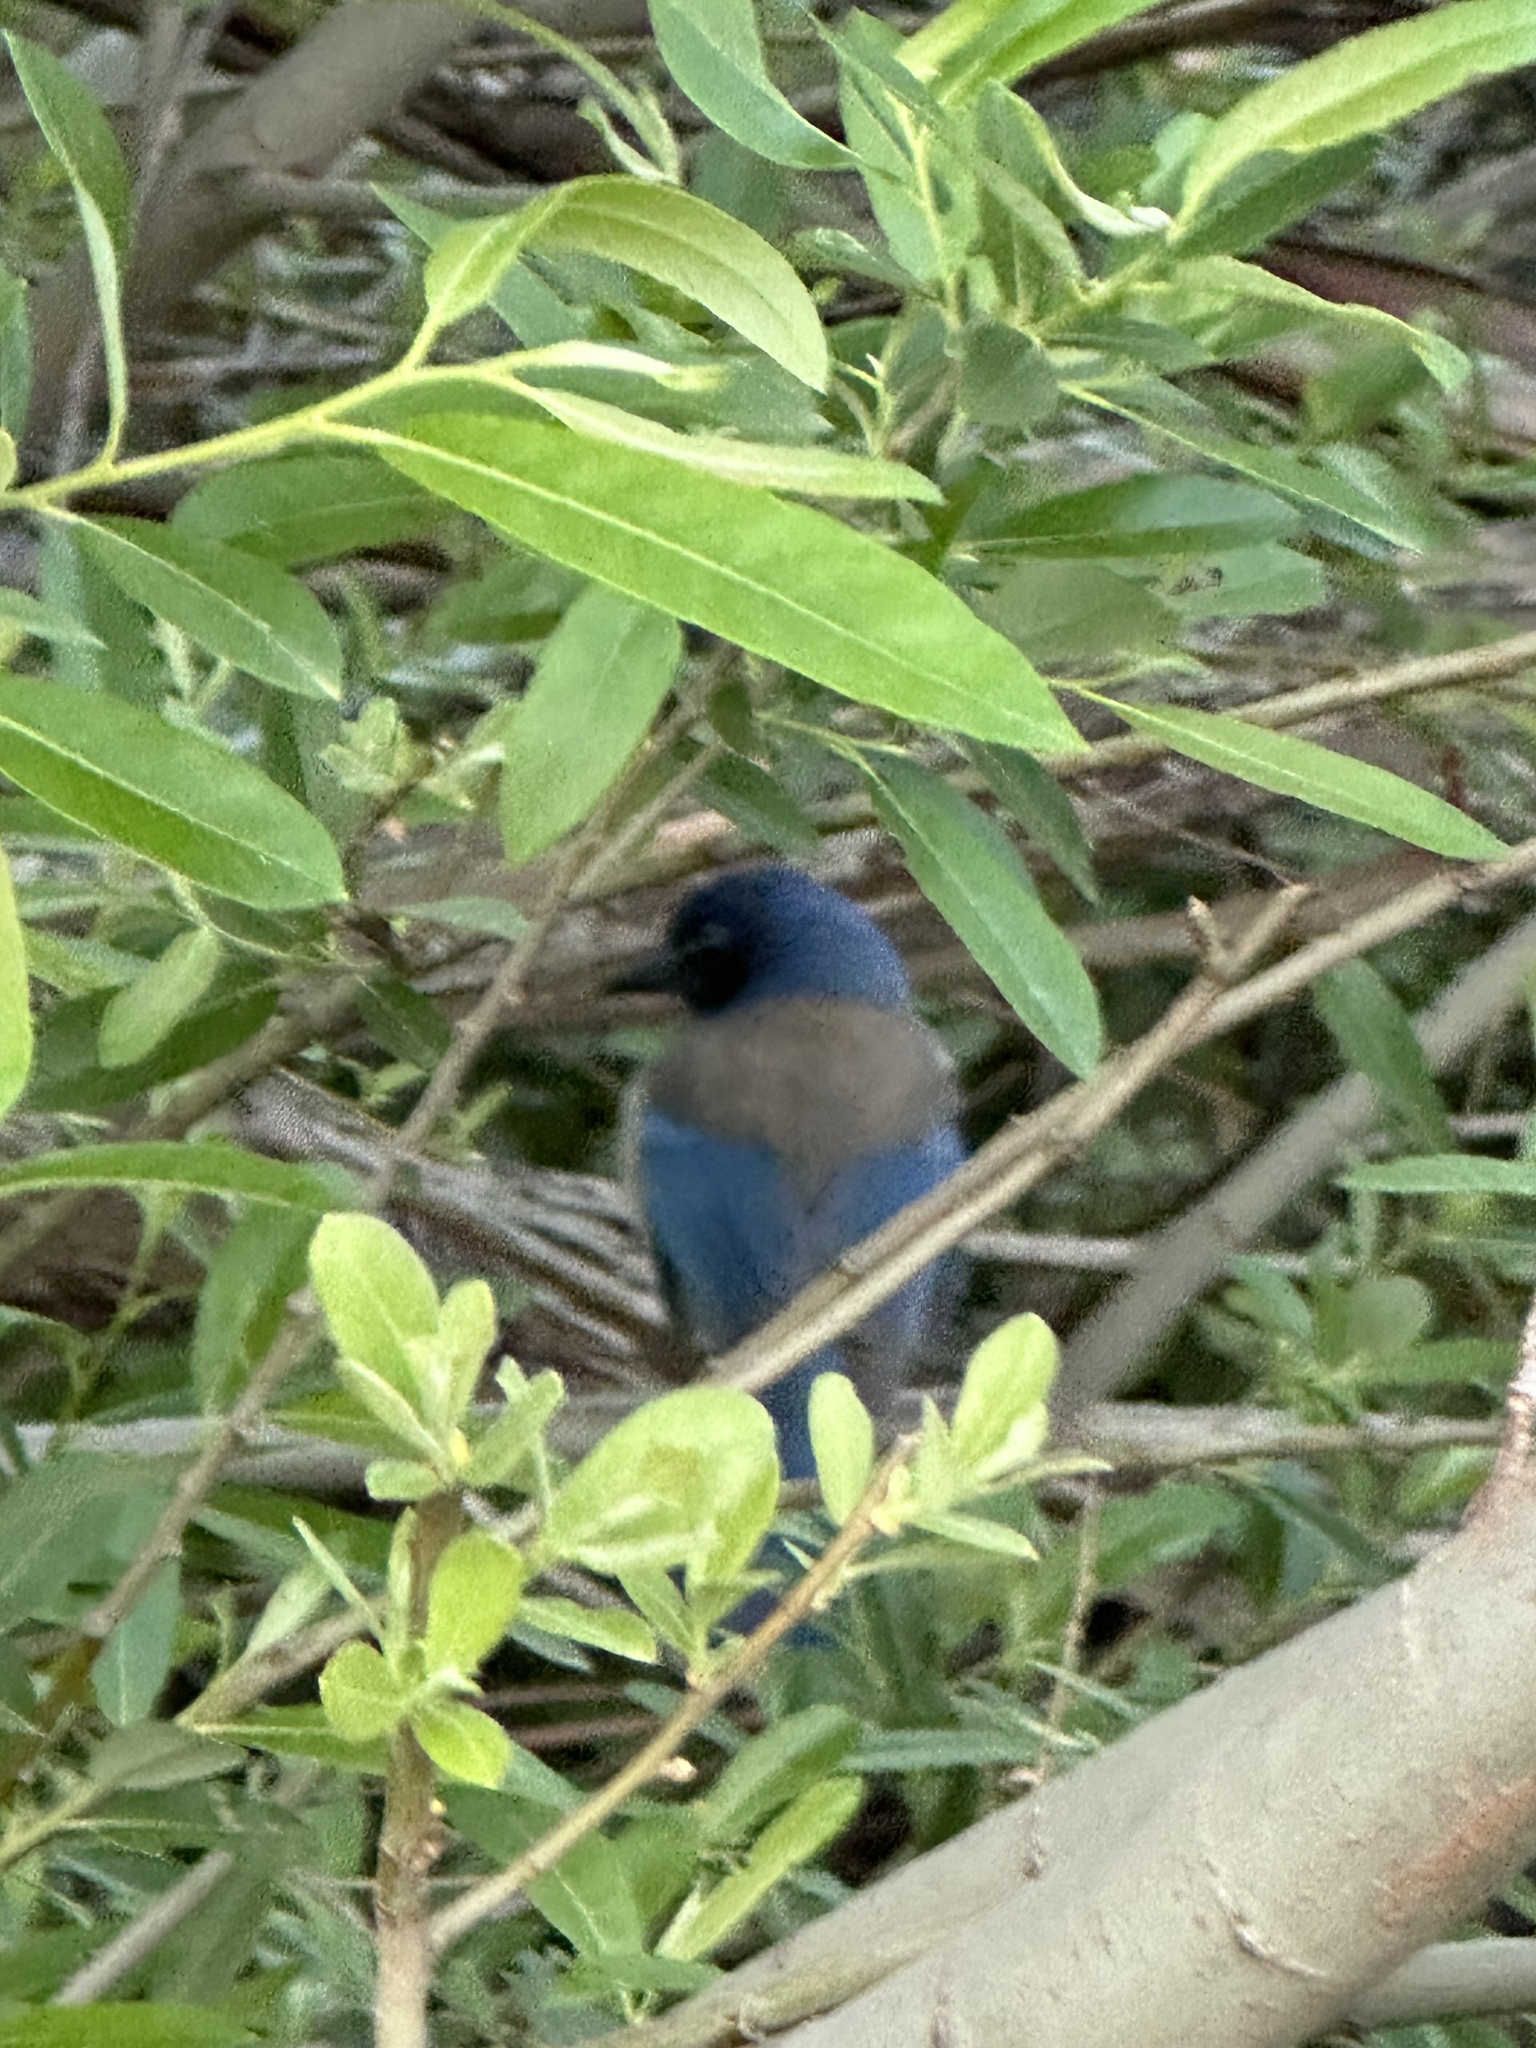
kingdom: Animalia
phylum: Chordata
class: Aves
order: Passeriformes
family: Corvidae
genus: Aphelocoma
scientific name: Aphelocoma californica
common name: California scrub-jay
